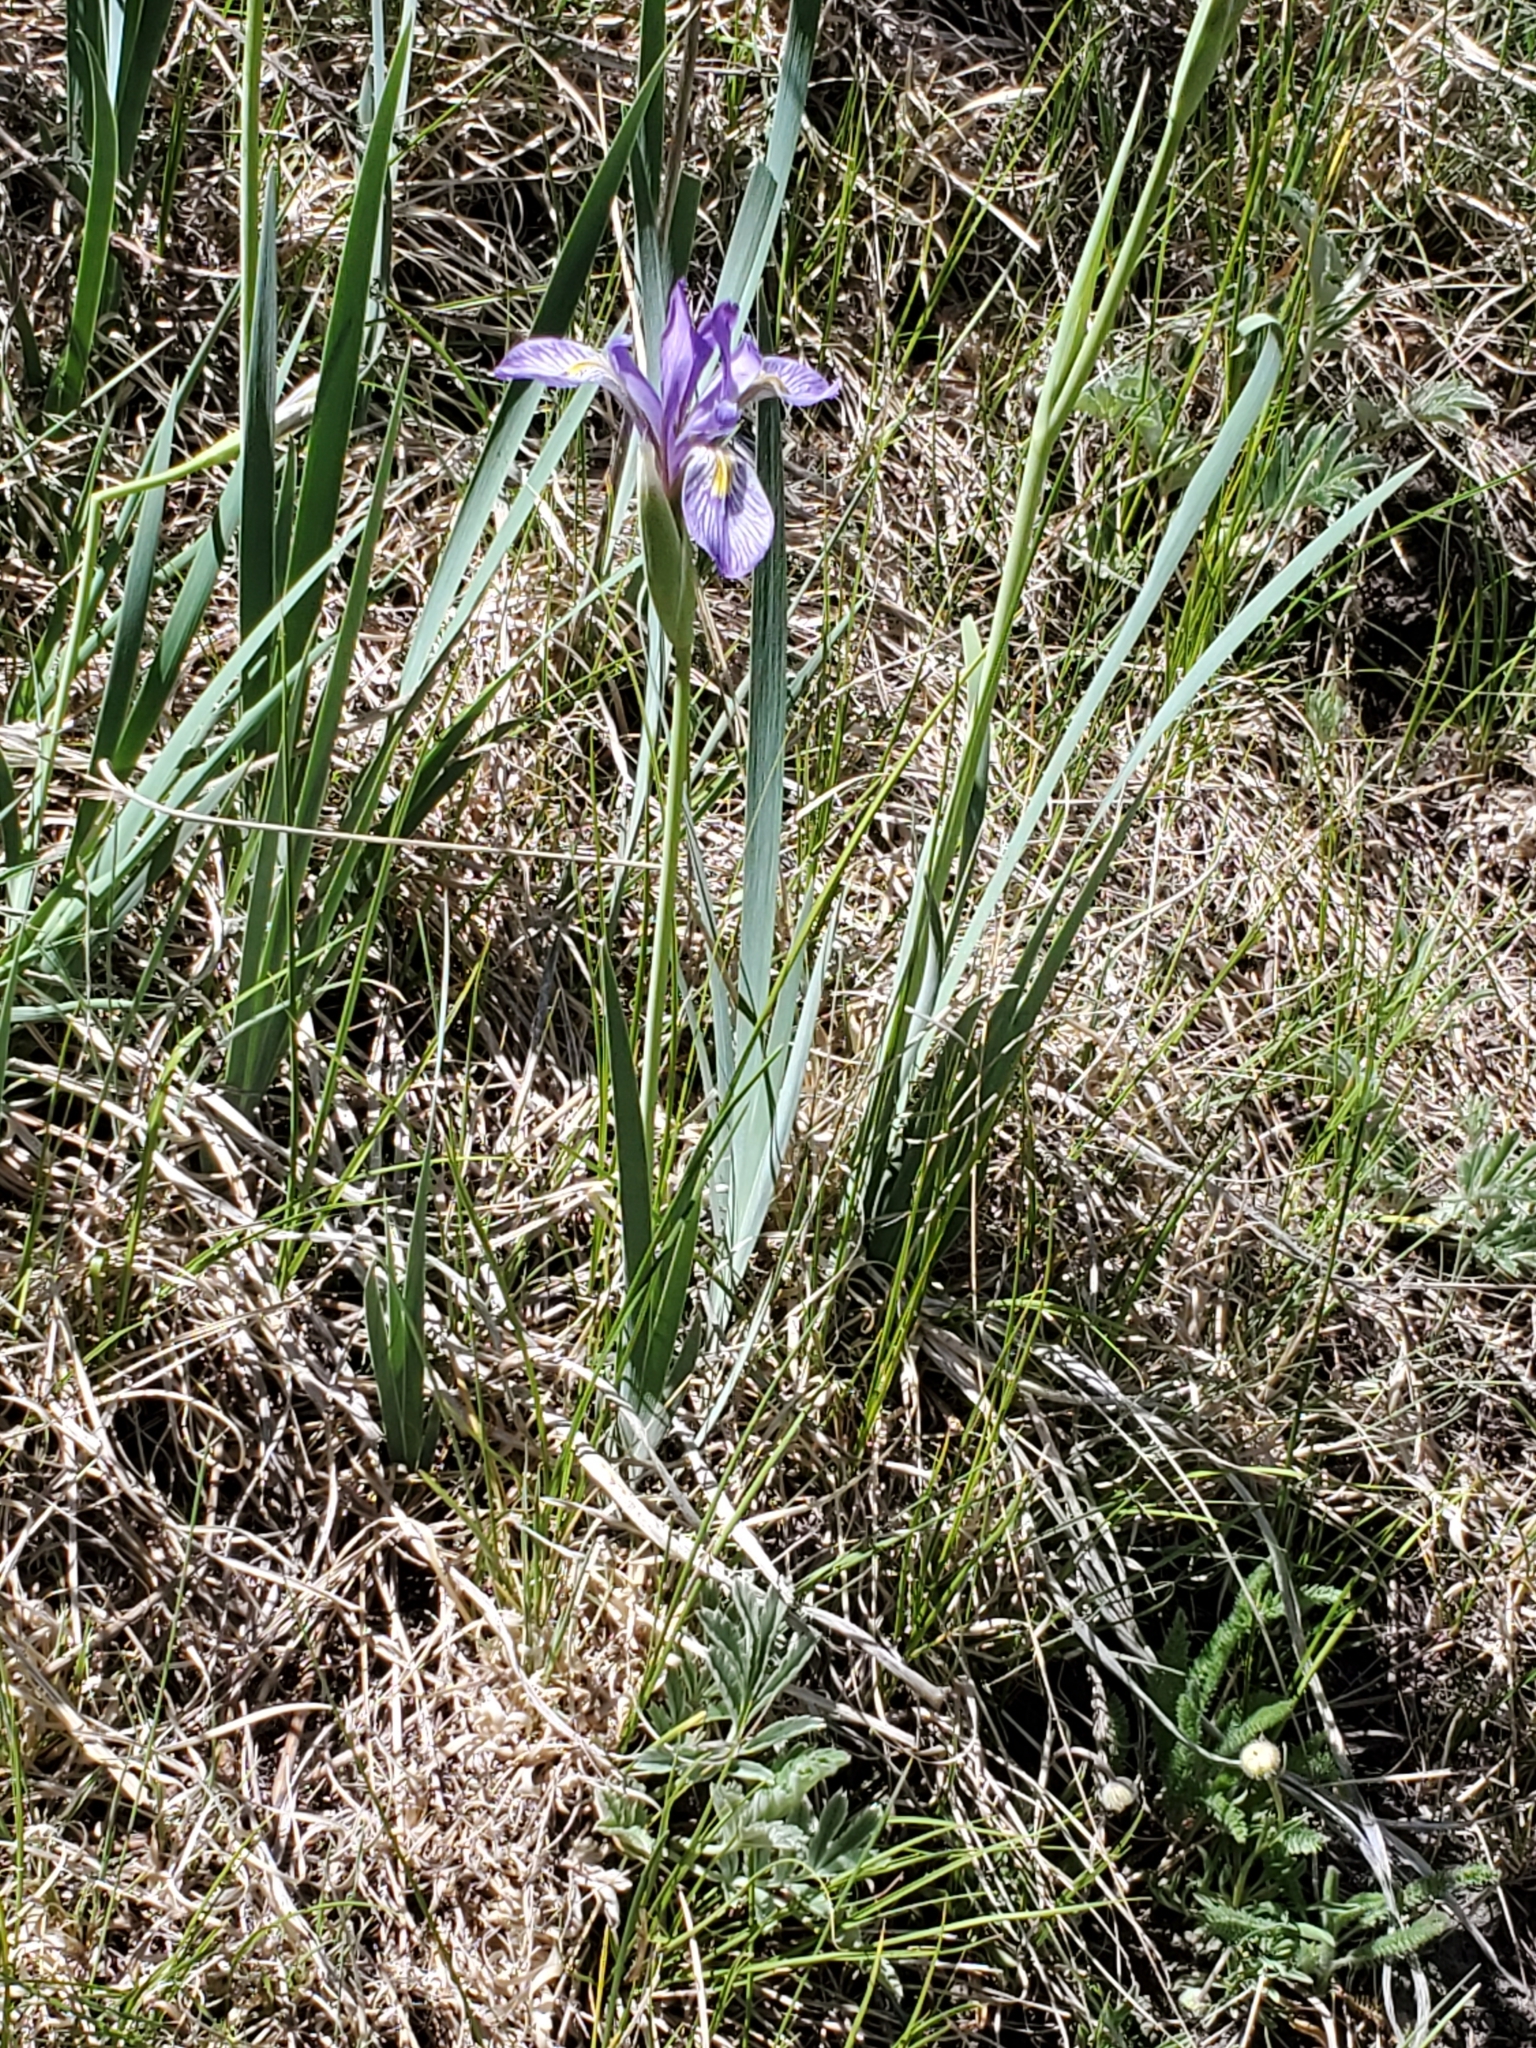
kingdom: Plantae
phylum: Tracheophyta
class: Liliopsida
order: Asparagales
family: Iridaceae
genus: Iris
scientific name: Iris missouriensis
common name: Rocky mountain iris
